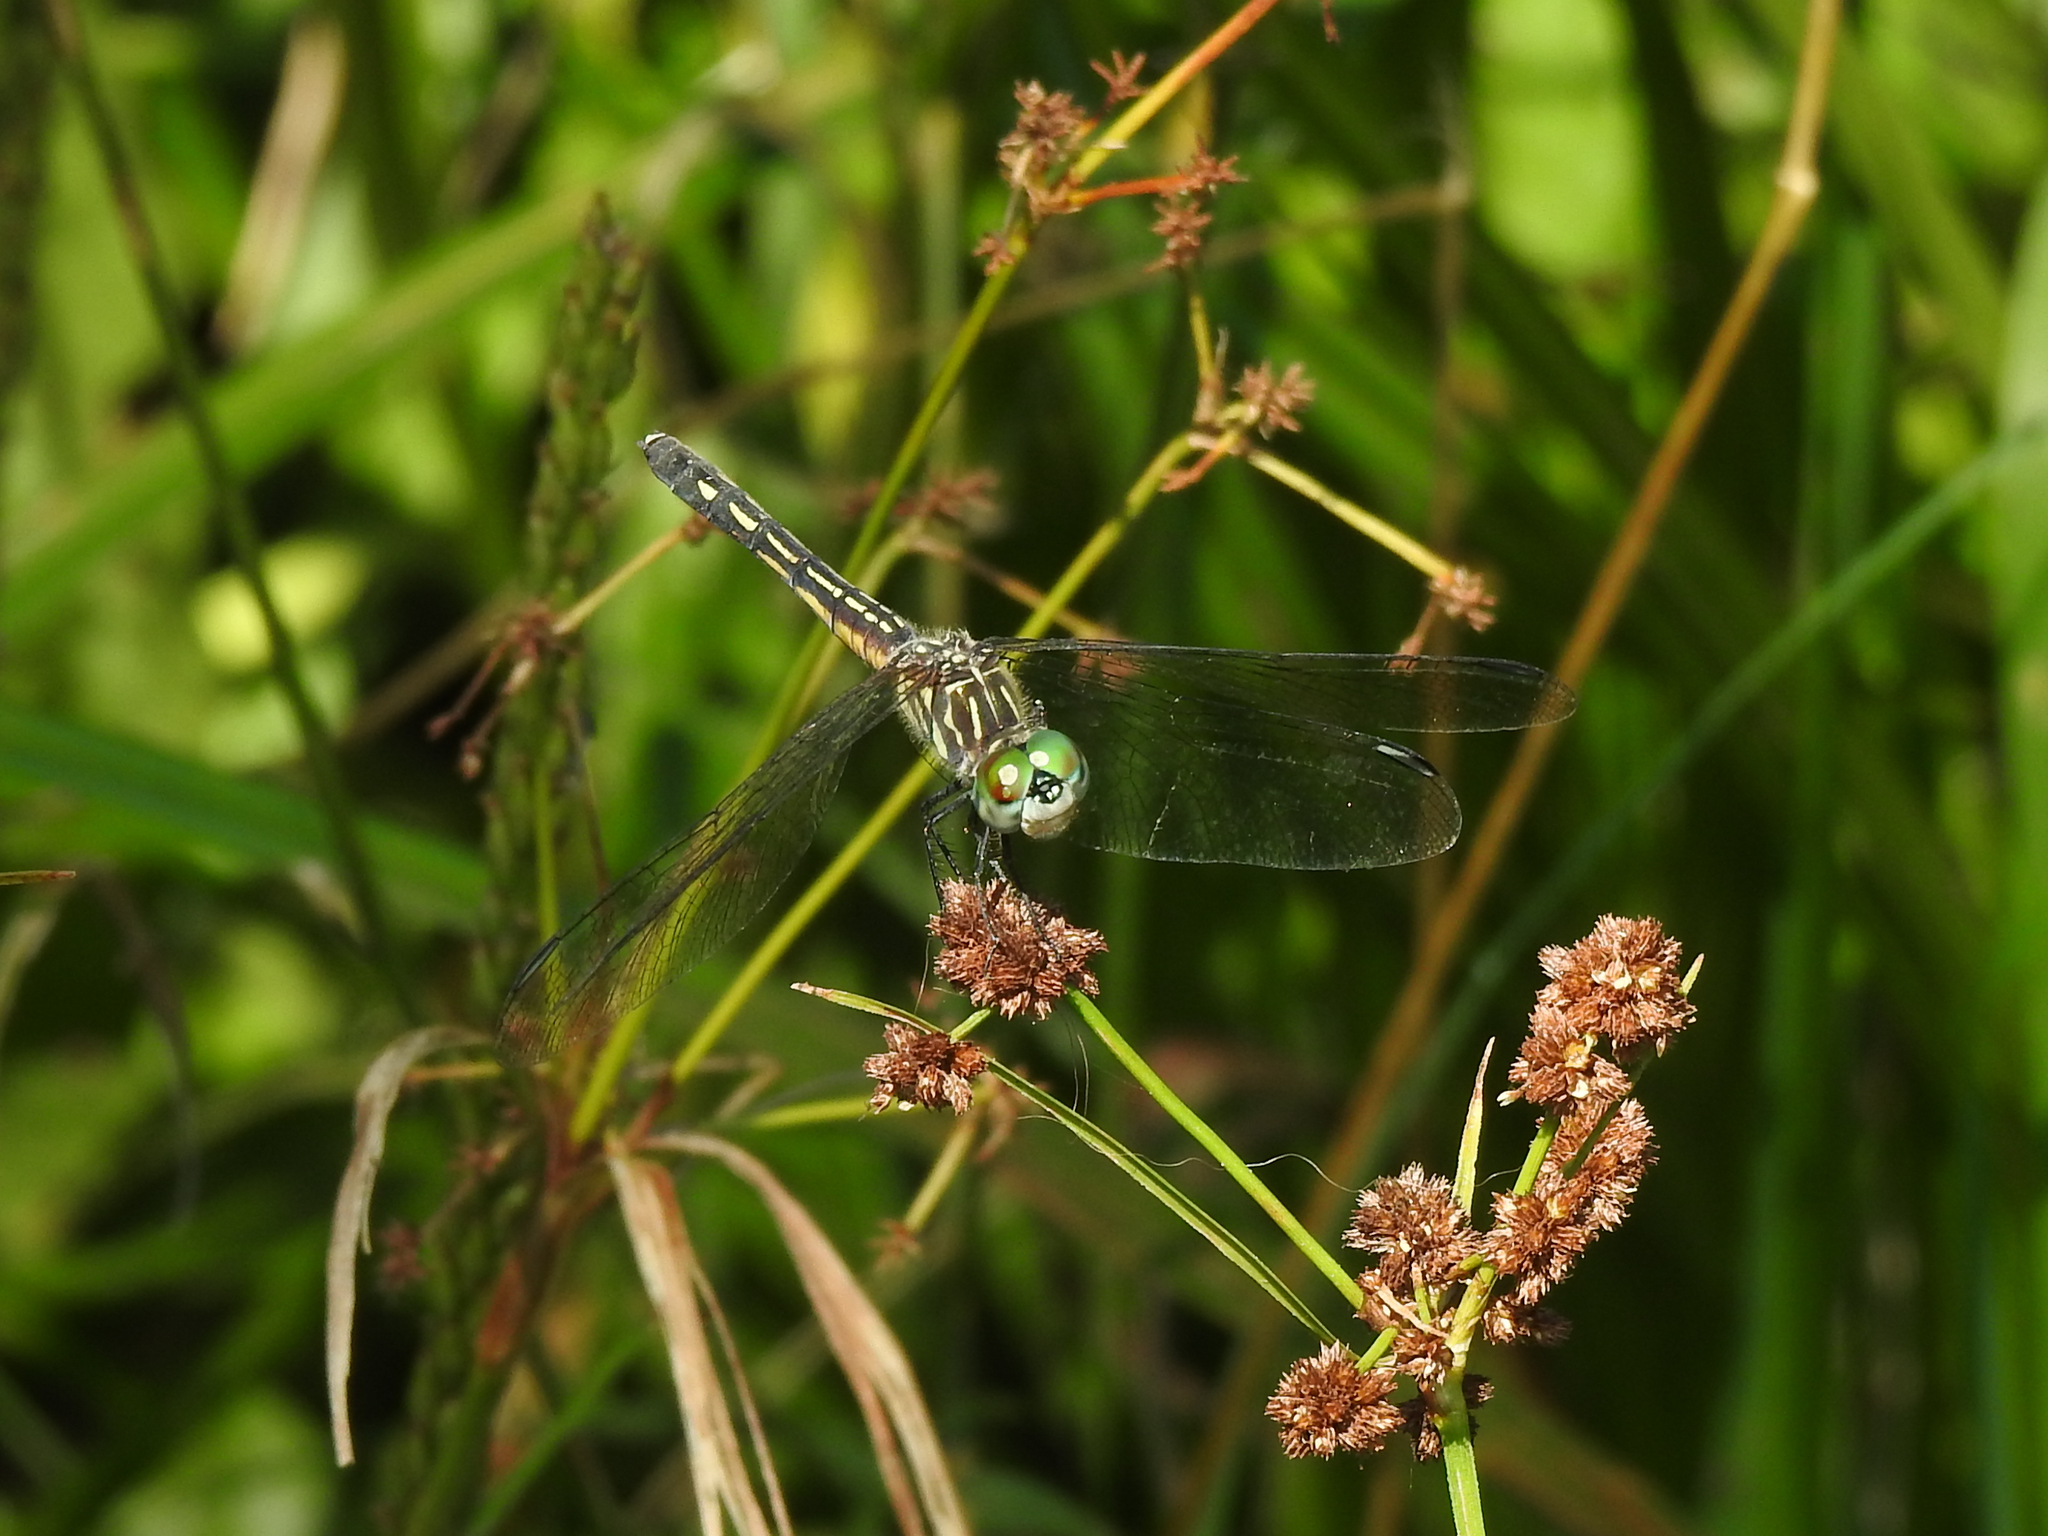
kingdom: Animalia
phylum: Arthropoda
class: Insecta
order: Odonata
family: Libellulidae
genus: Pachydiplax
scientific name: Pachydiplax longipennis
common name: Blue dasher
